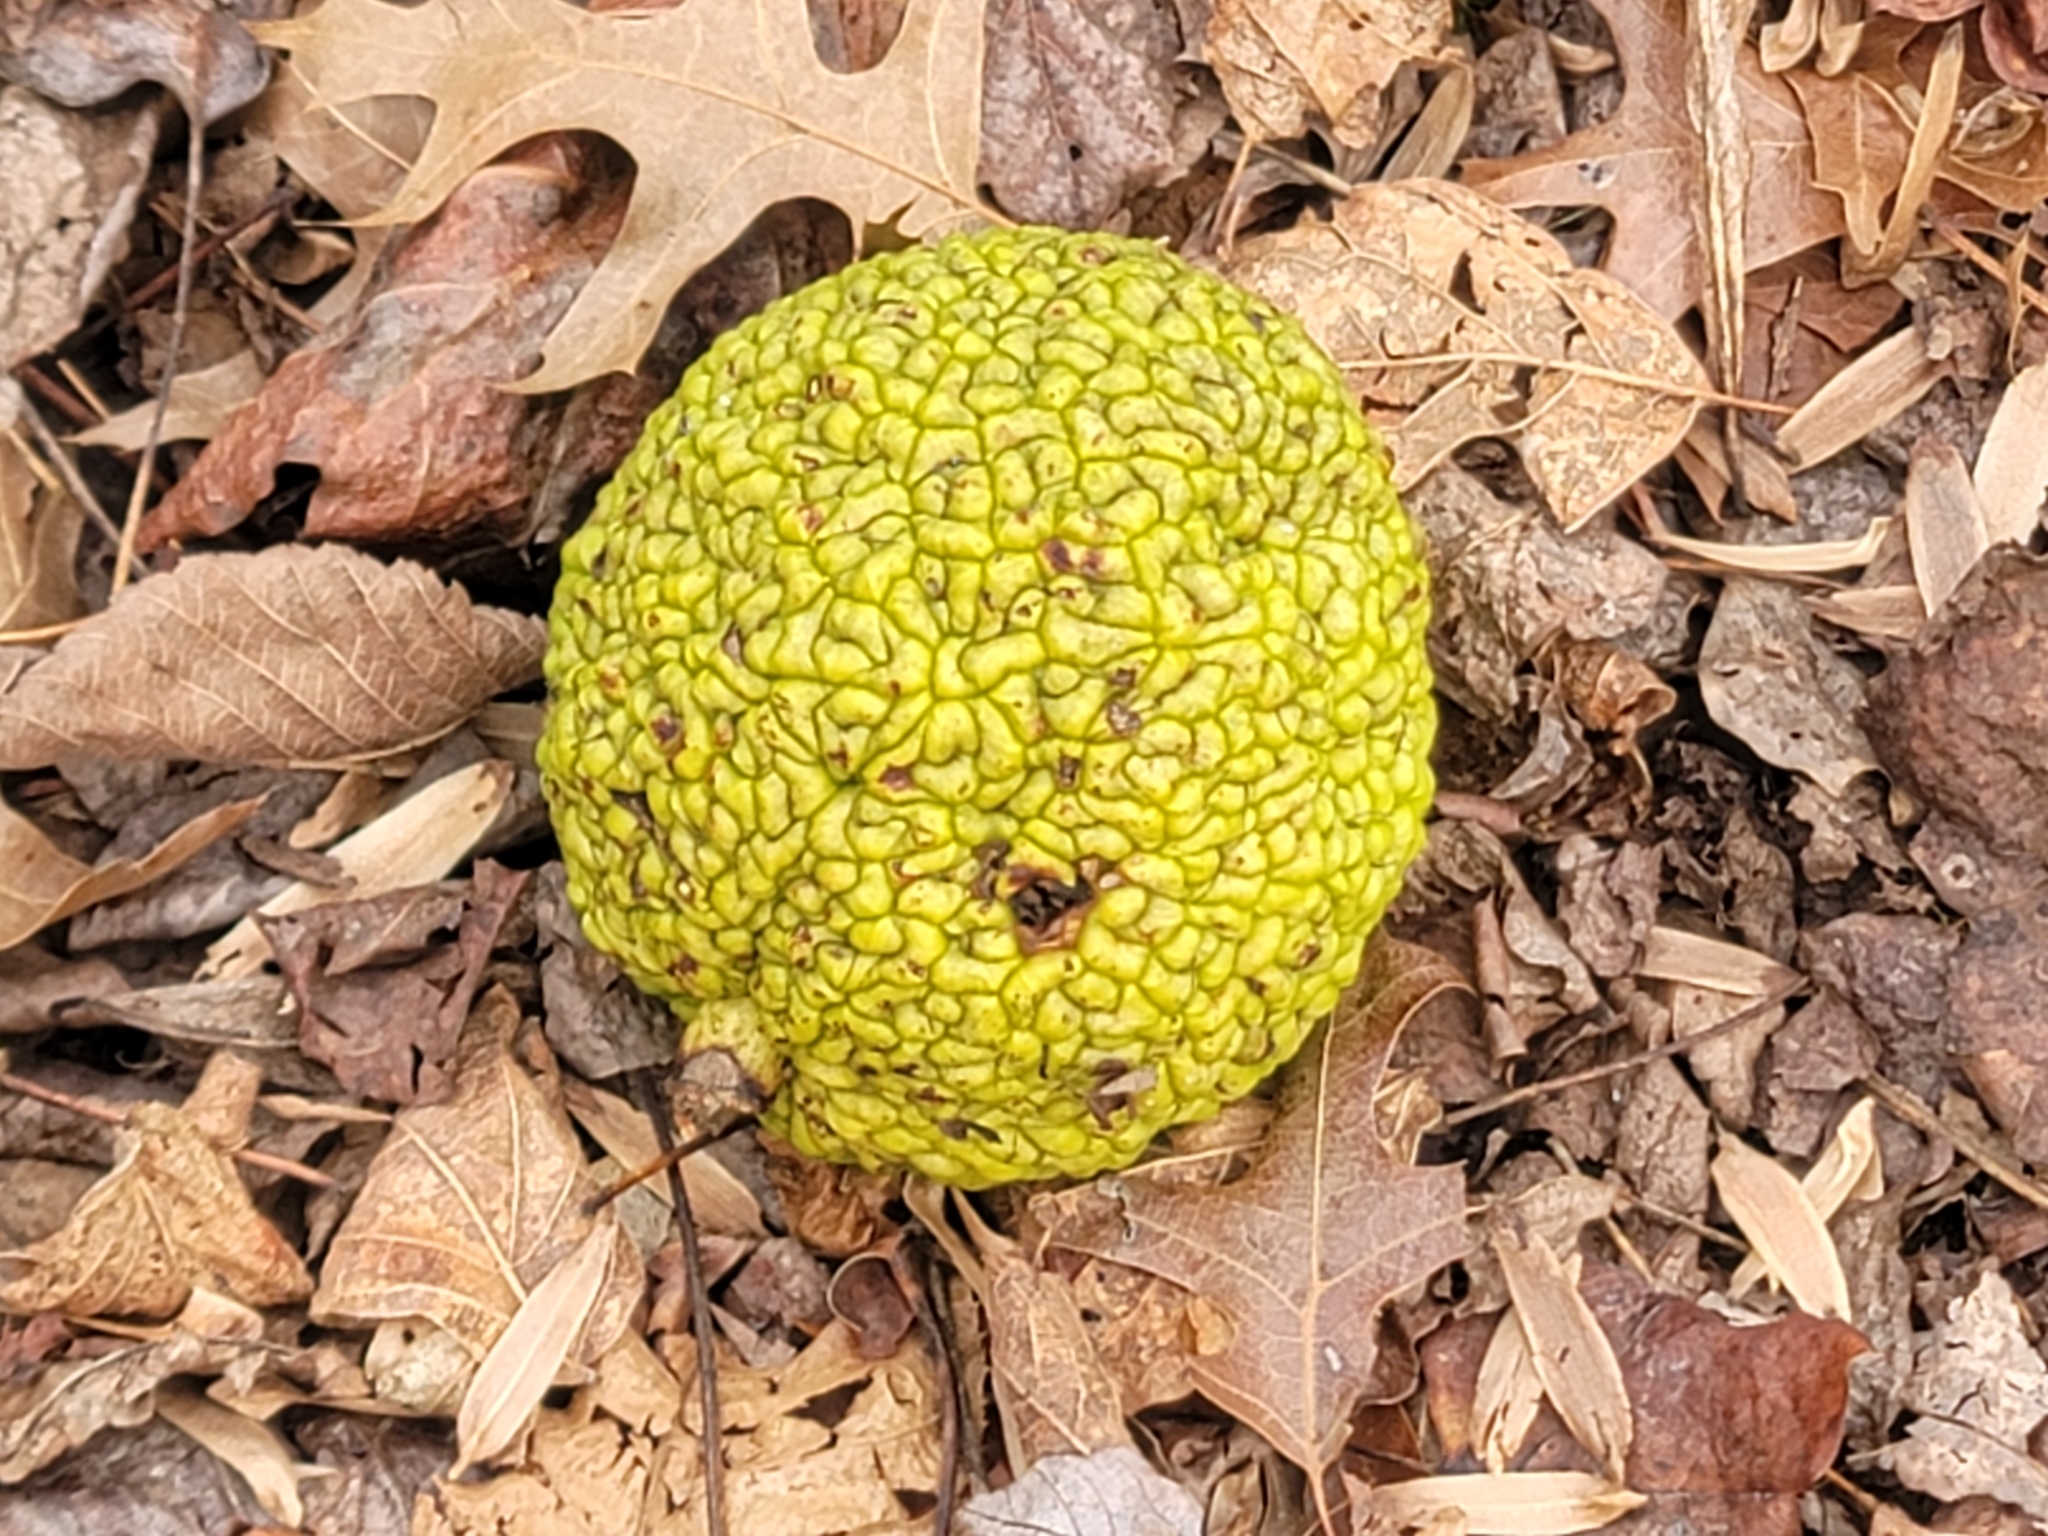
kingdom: Plantae
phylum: Tracheophyta
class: Magnoliopsida
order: Rosales
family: Moraceae
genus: Maclura
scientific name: Maclura pomifera
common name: Osage-orange
